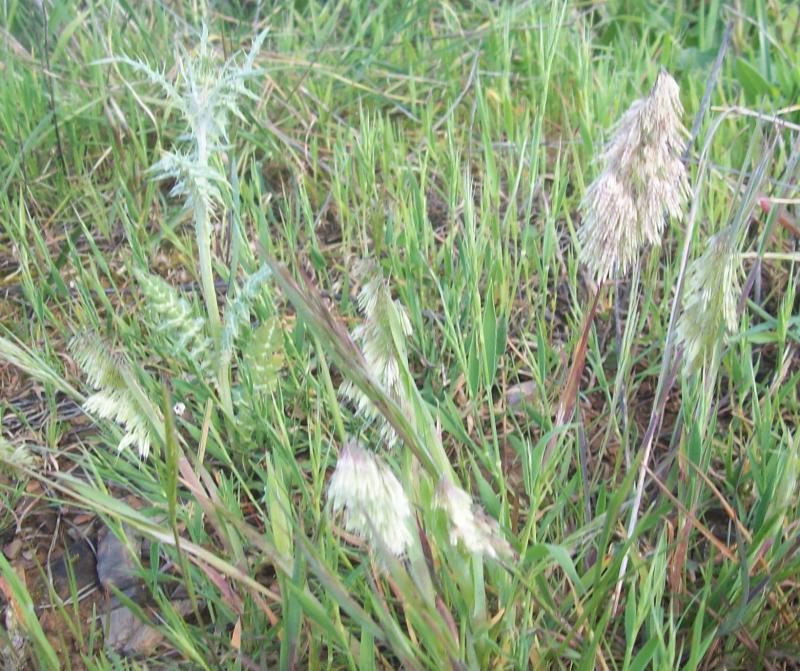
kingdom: Plantae
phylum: Tracheophyta
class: Liliopsida
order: Poales
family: Poaceae
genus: Lamarckia
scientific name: Lamarckia aurea
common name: Golden dog's-tail
